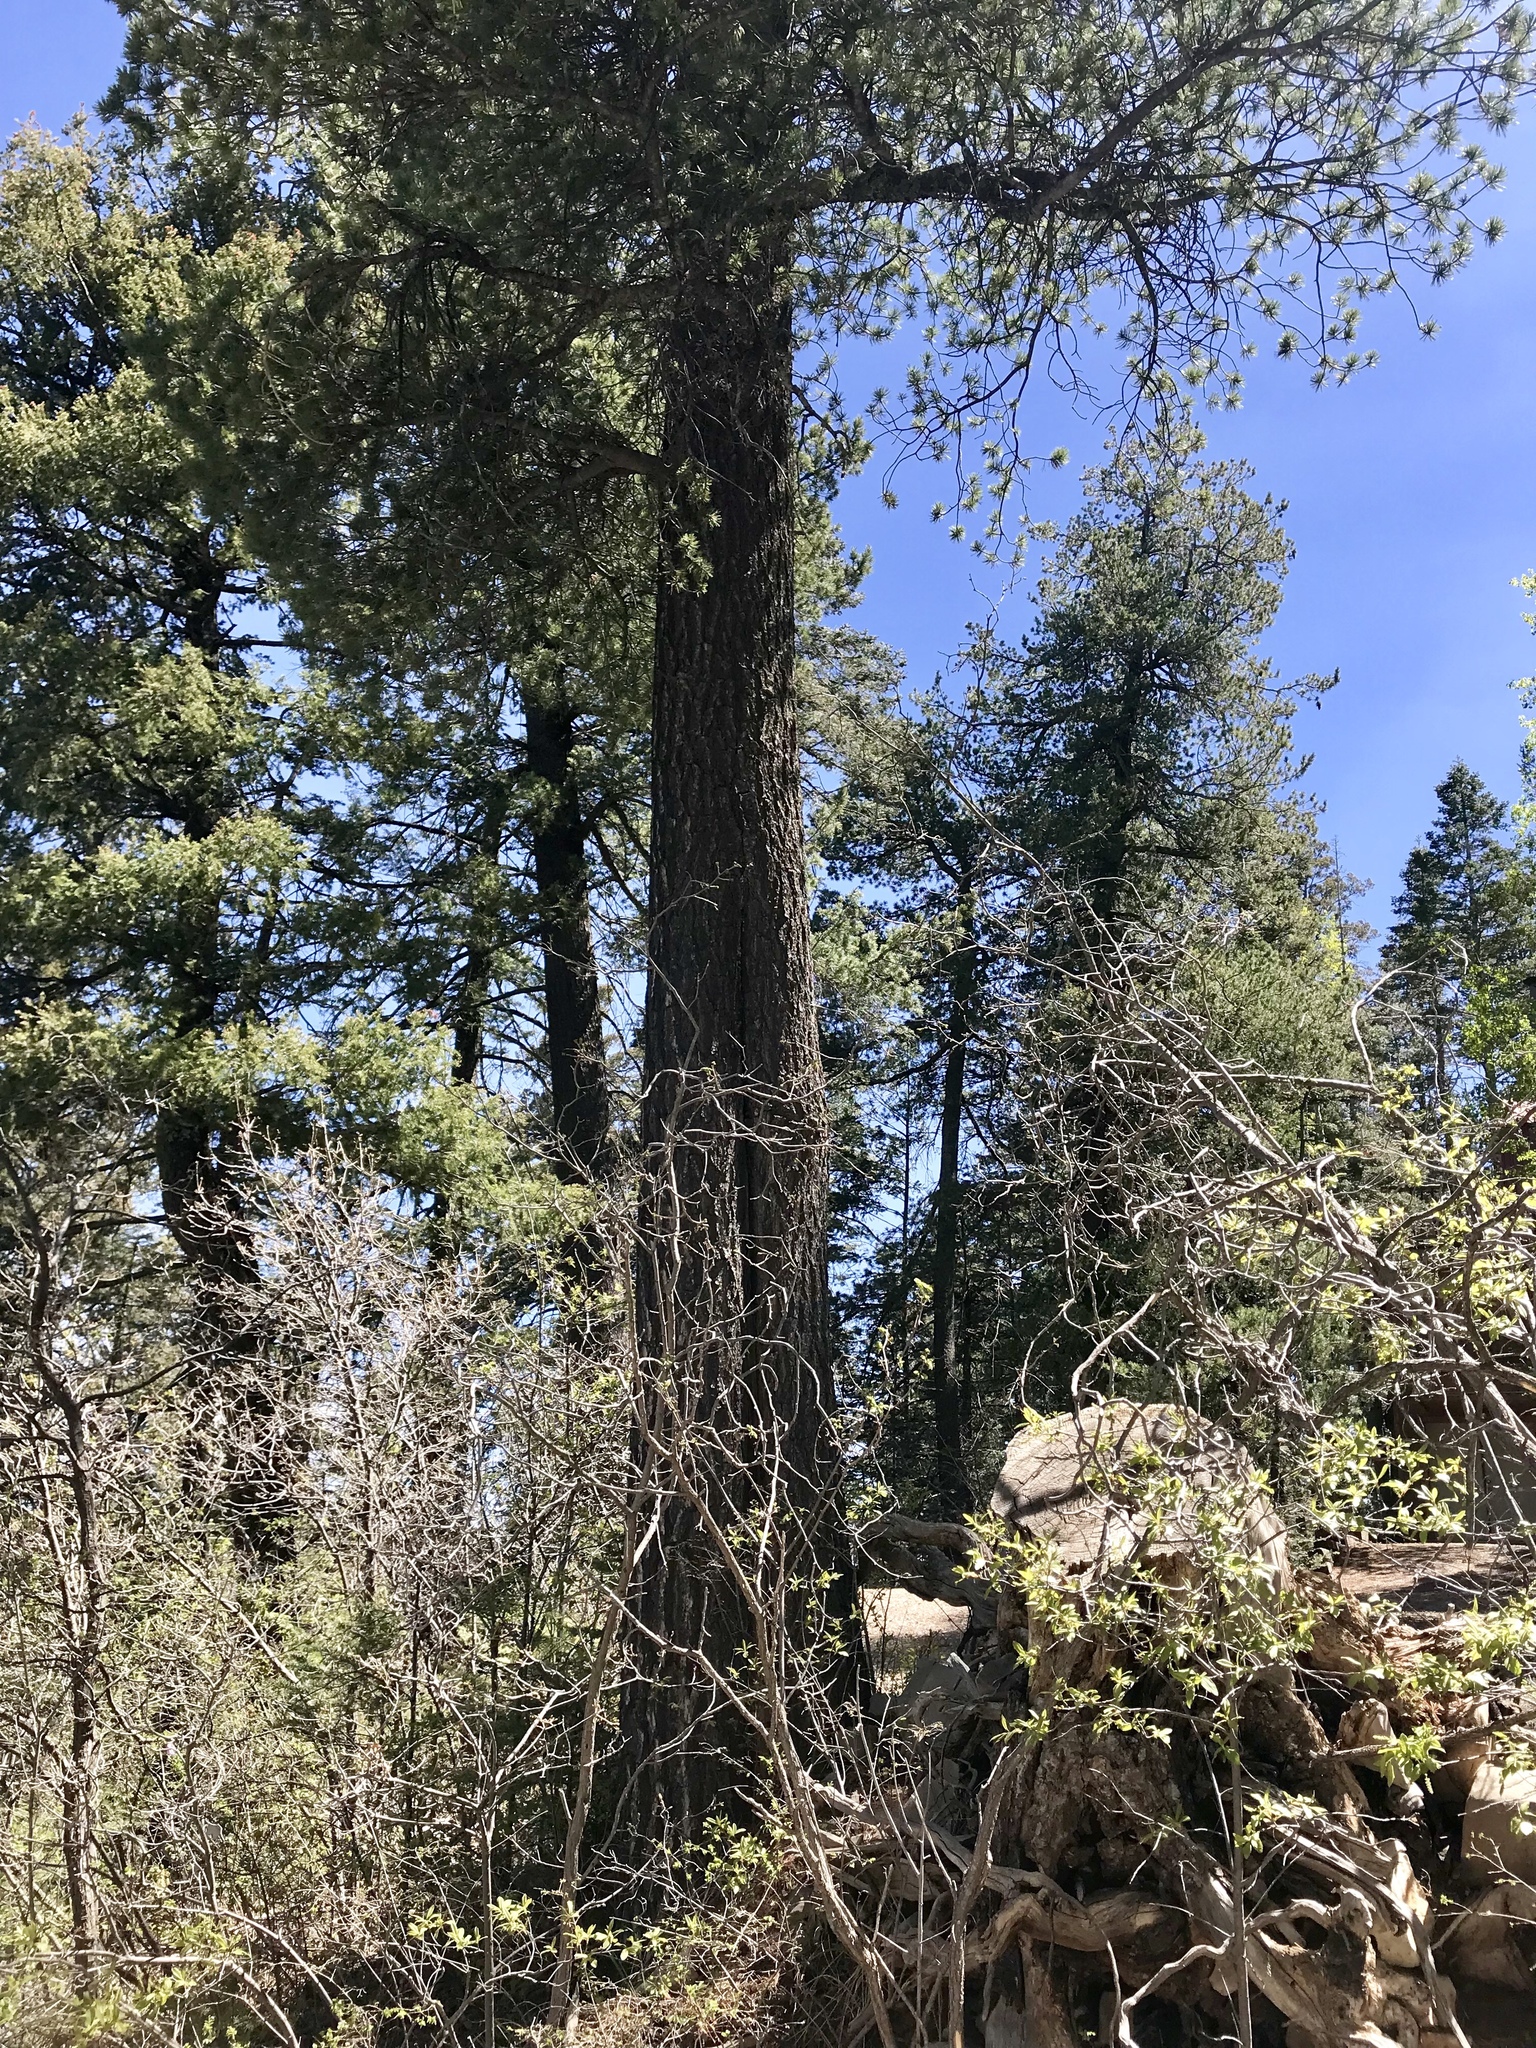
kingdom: Plantae
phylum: Tracheophyta
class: Pinopsida
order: Pinales
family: Pinaceae
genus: Abies
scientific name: Abies concolor
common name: Colorado fir
